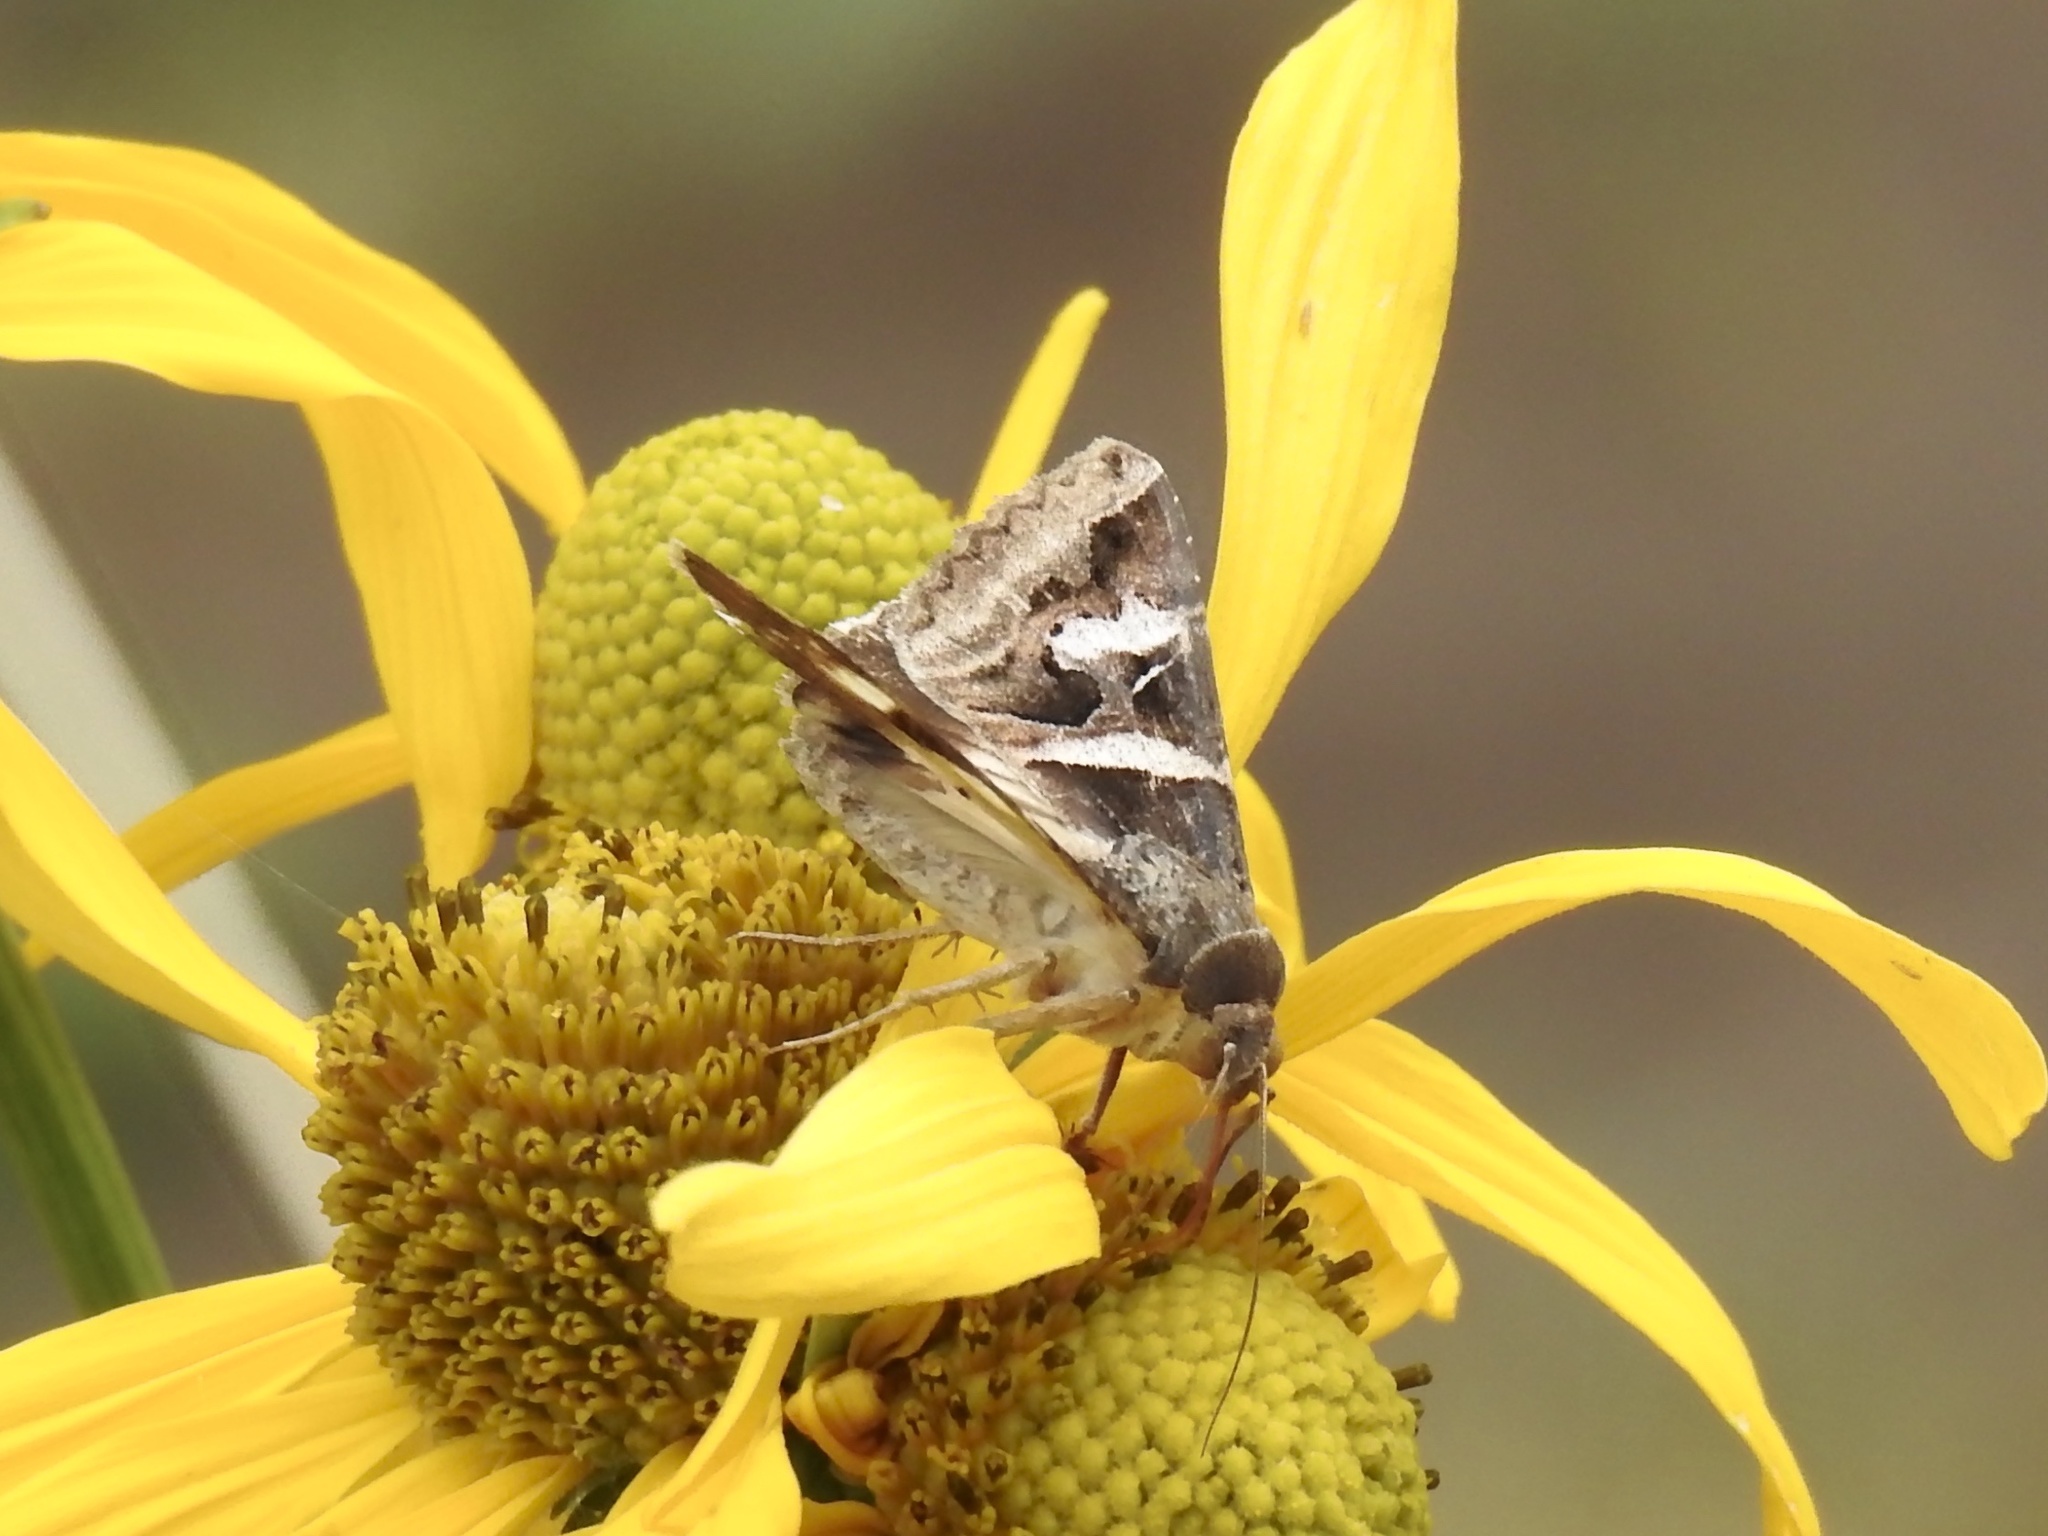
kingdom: Animalia
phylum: Arthropoda
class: Insecta
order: Lepidoptera
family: Erebidae
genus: Melipotis
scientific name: Melipotis indomita
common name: Moth
